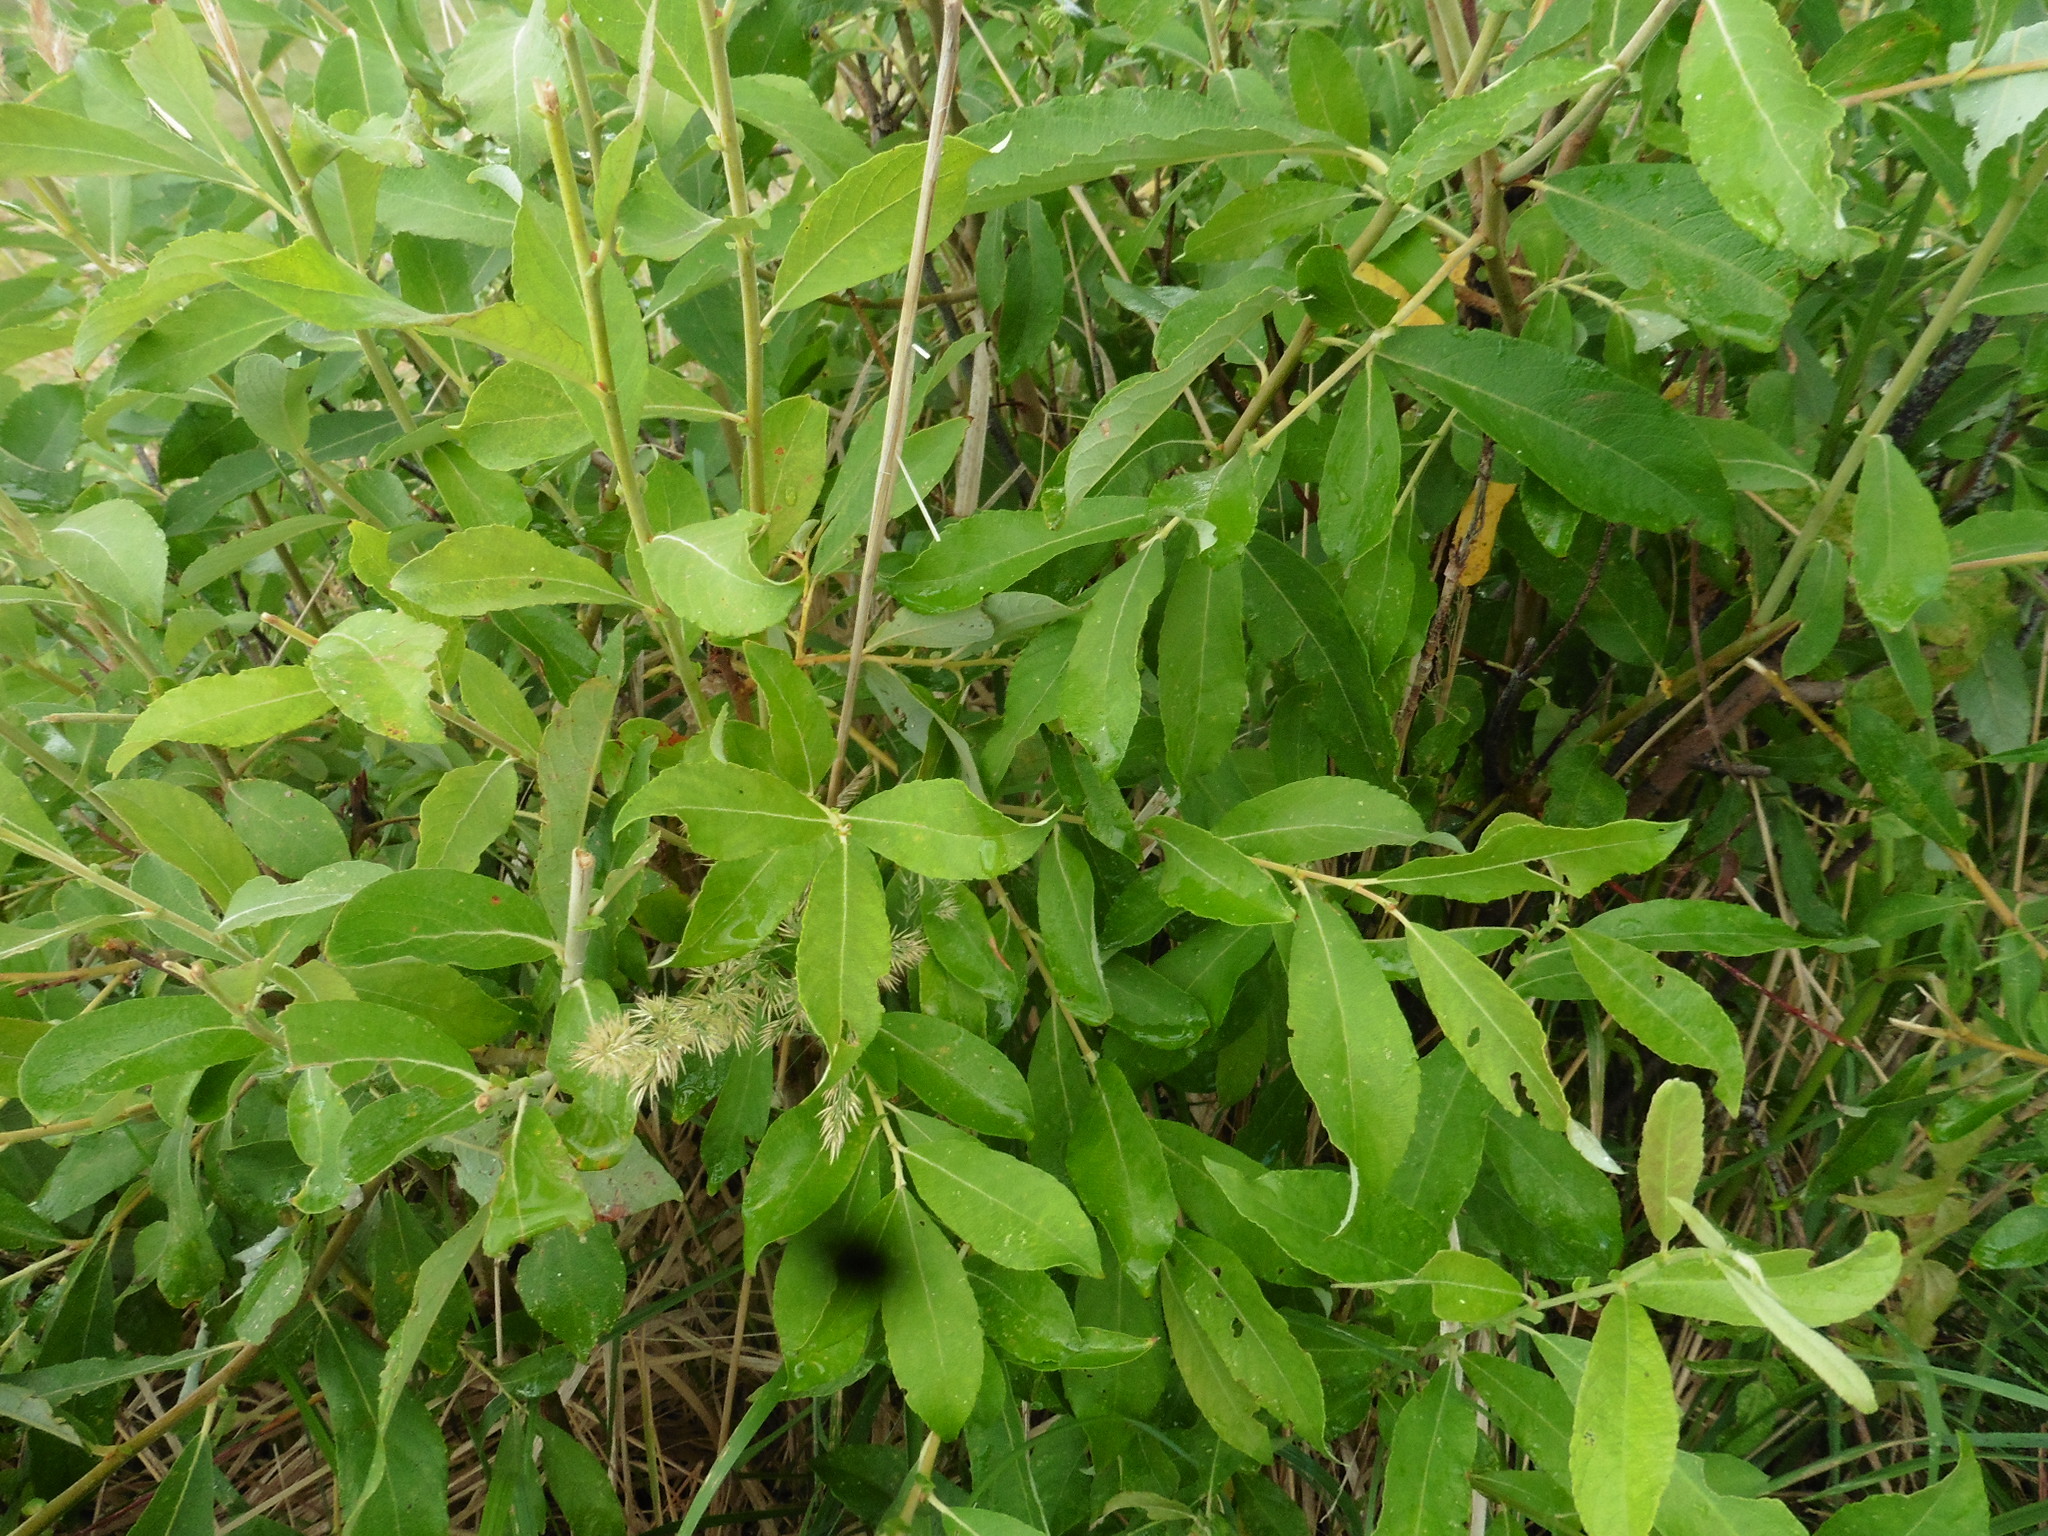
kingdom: Plantae
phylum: Tracheophyta
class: Magnoliopsida
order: Malpighiales
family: Salicaceae
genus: Salix
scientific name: Salix cinerea
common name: Common sallow
